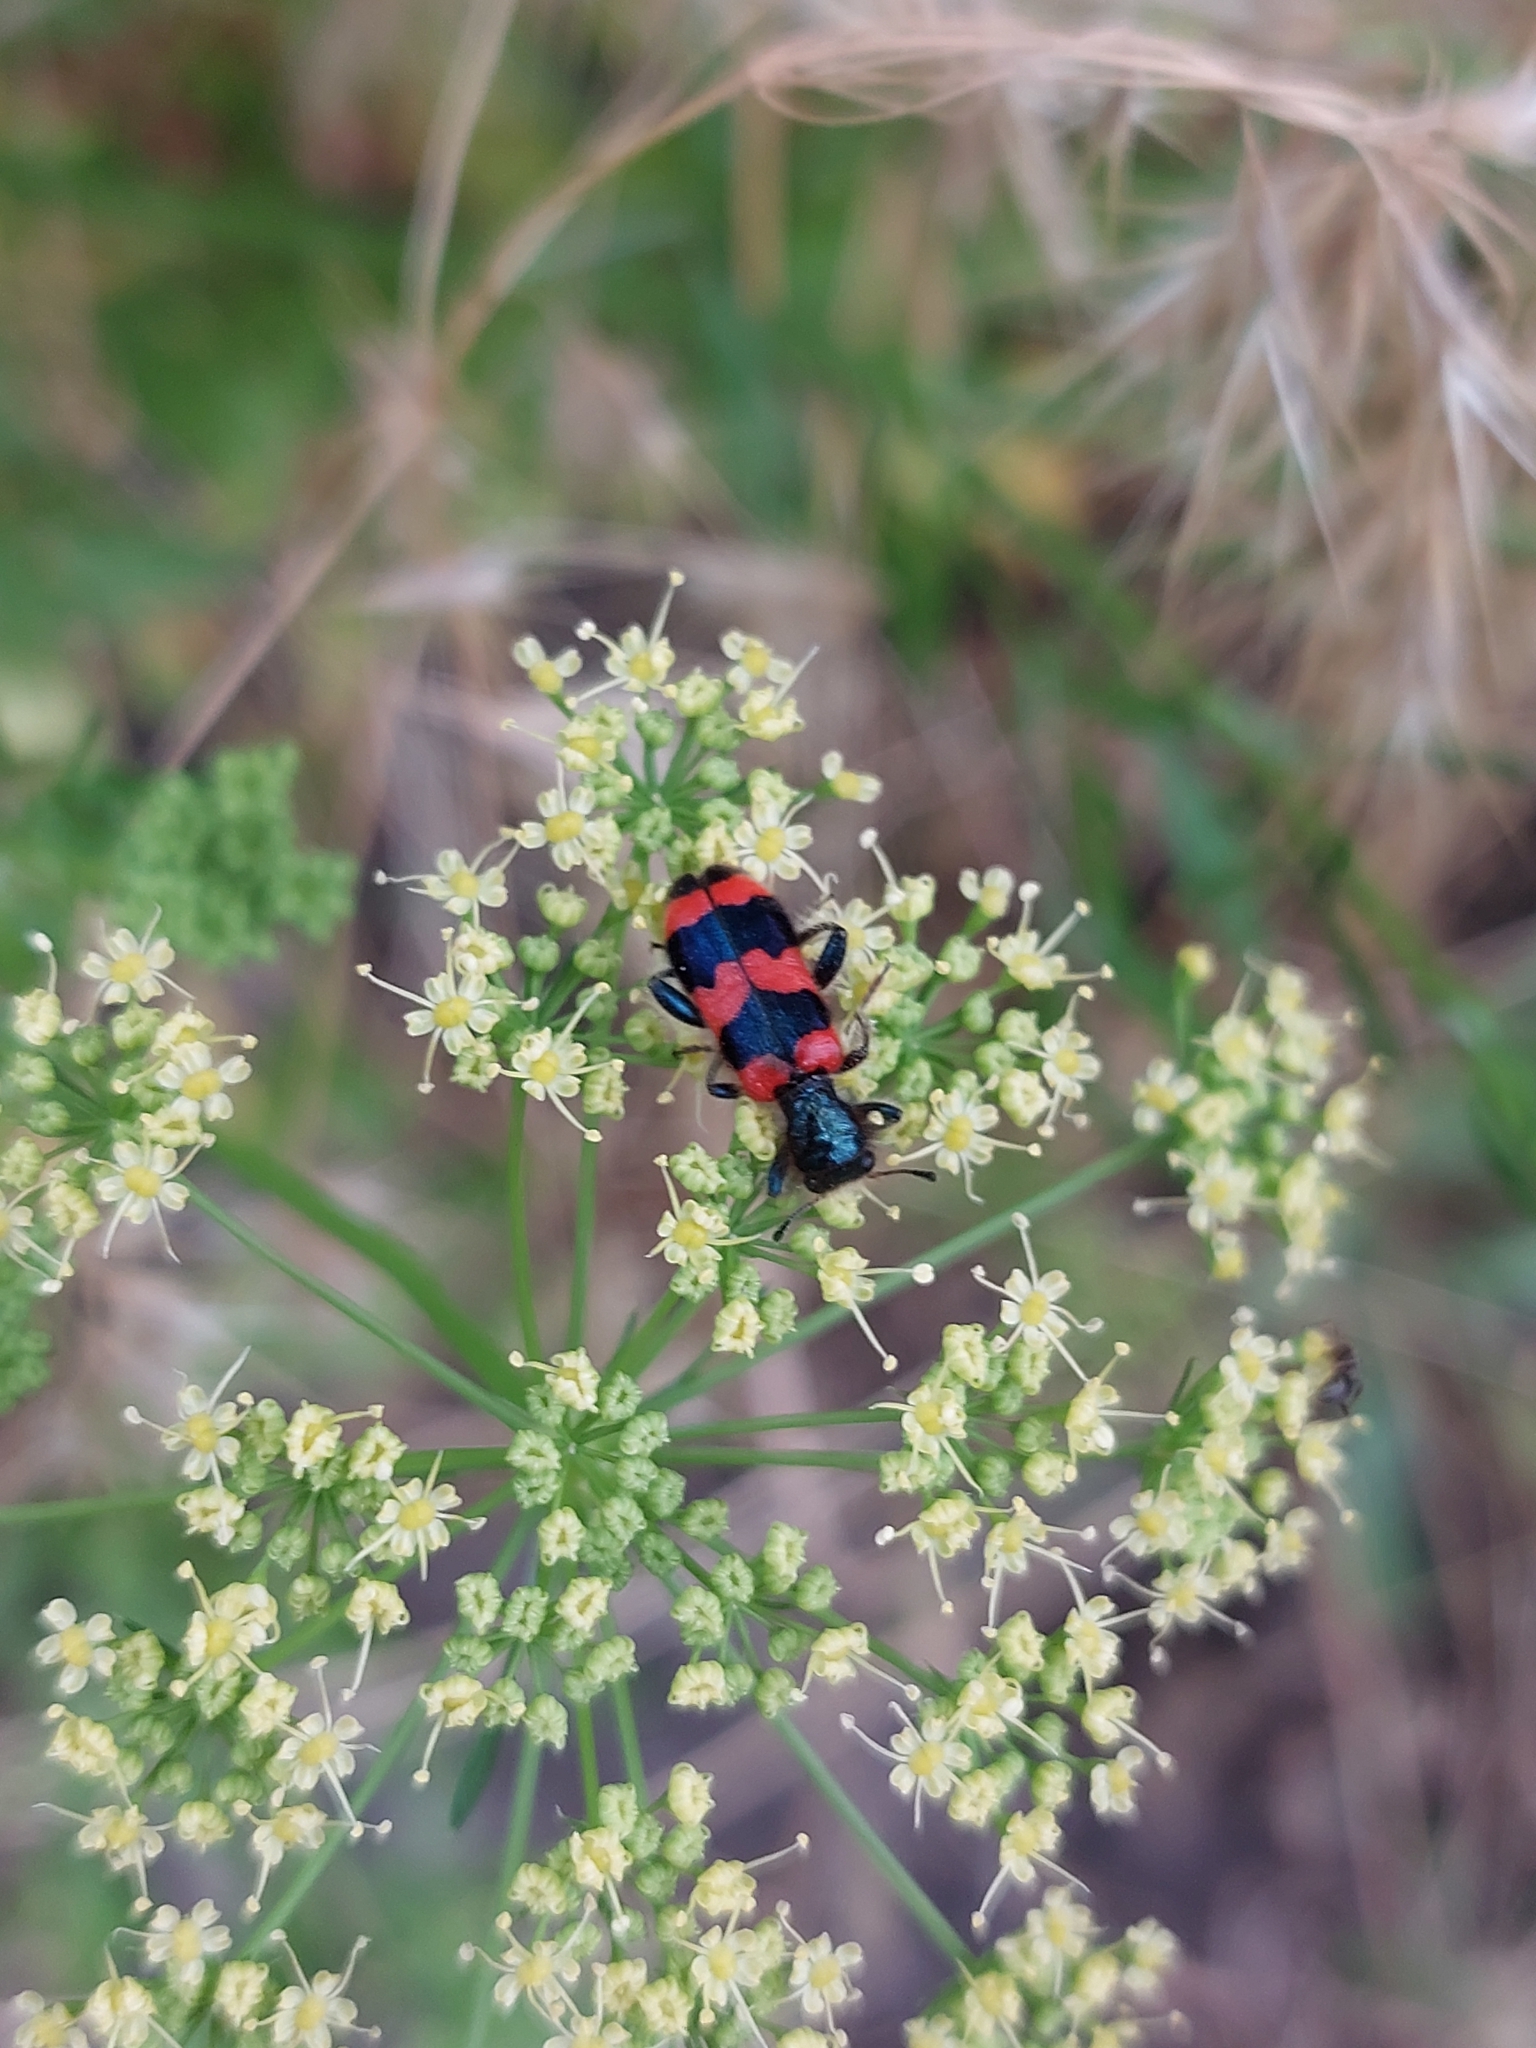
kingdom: Animalia
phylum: Arthropoda
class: Insecta
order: Coleoptera
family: Cleridae
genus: Trichodes
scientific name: Trichodes apiarius
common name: Bee-eating beetle
